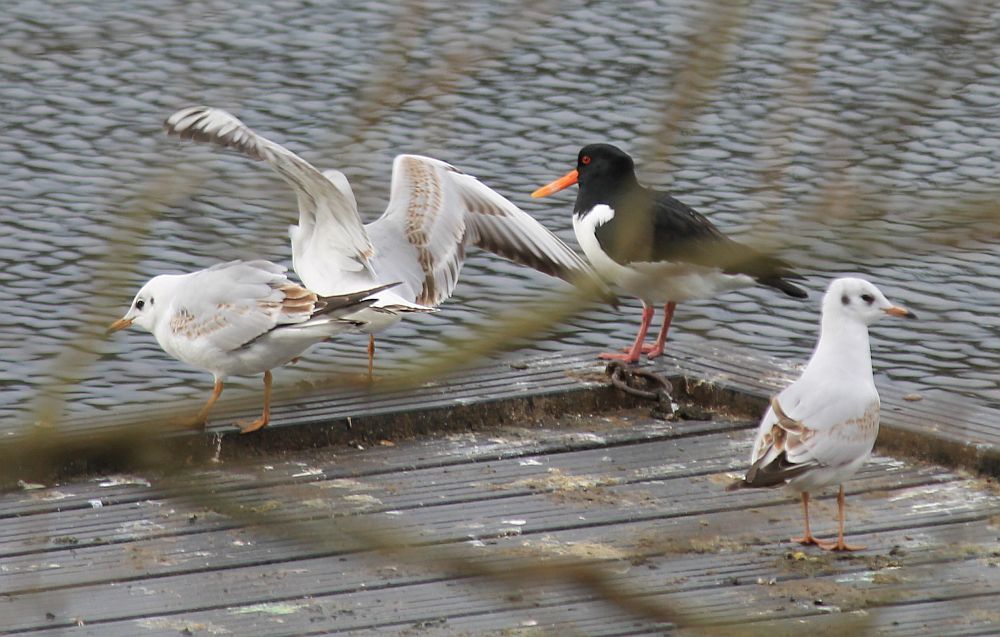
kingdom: Animalia
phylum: Chordata
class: Aves
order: Charadriiformes
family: Haematopodidae
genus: Haematopus
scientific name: Haematopus ostralegus
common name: Eurasian oystercatcher
